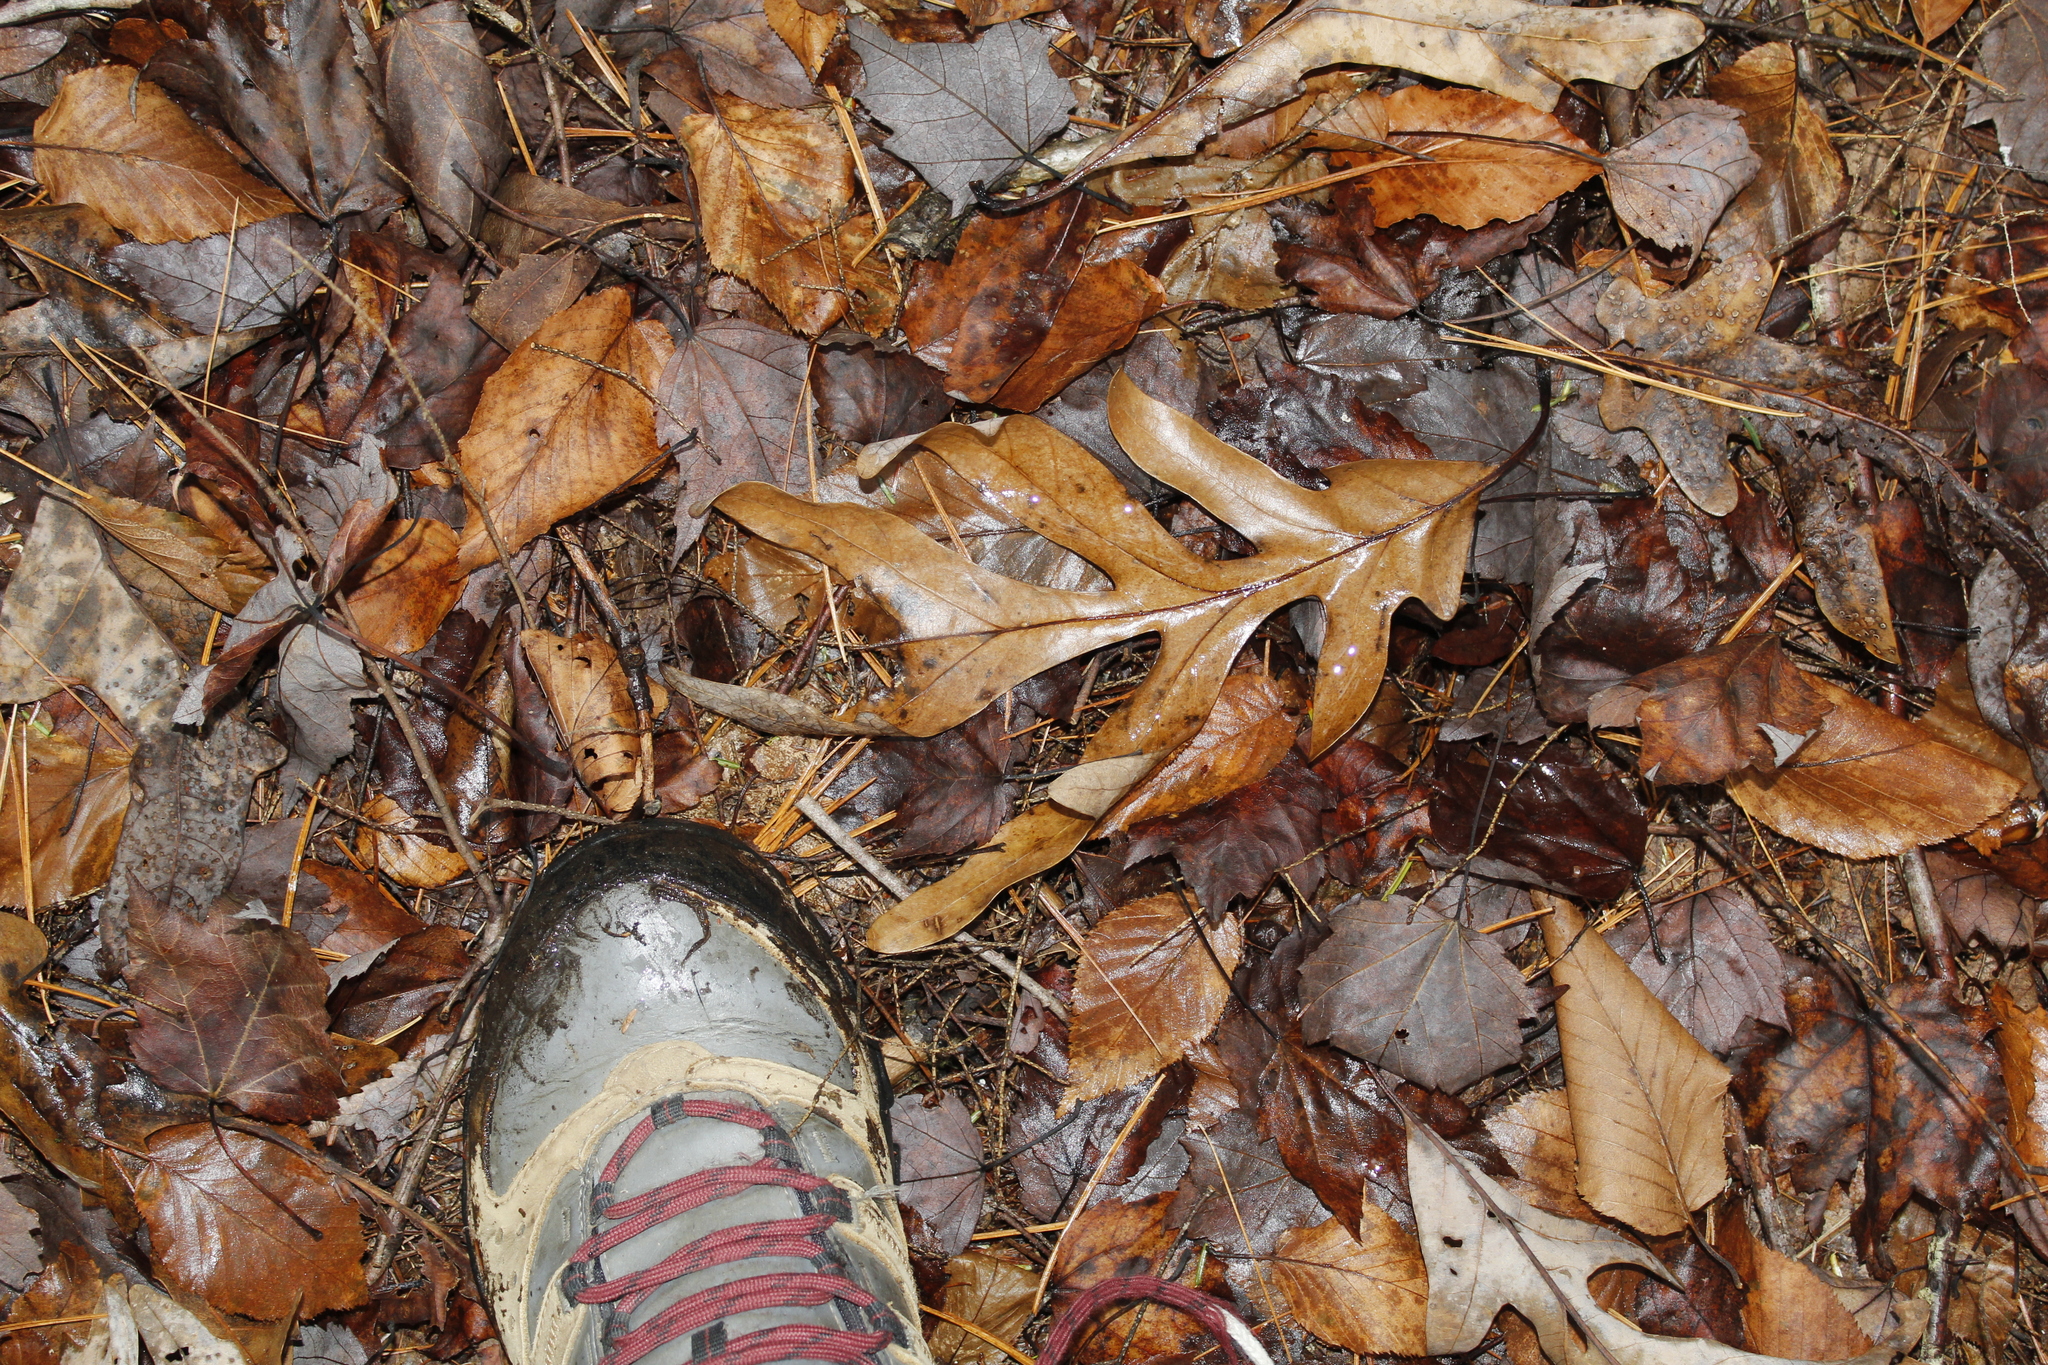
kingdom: Plantae
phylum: Tracheophyta
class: Magnoliopsida
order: Fagales
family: Fagaceae
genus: Quercus
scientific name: Quercus alba
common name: White oak
